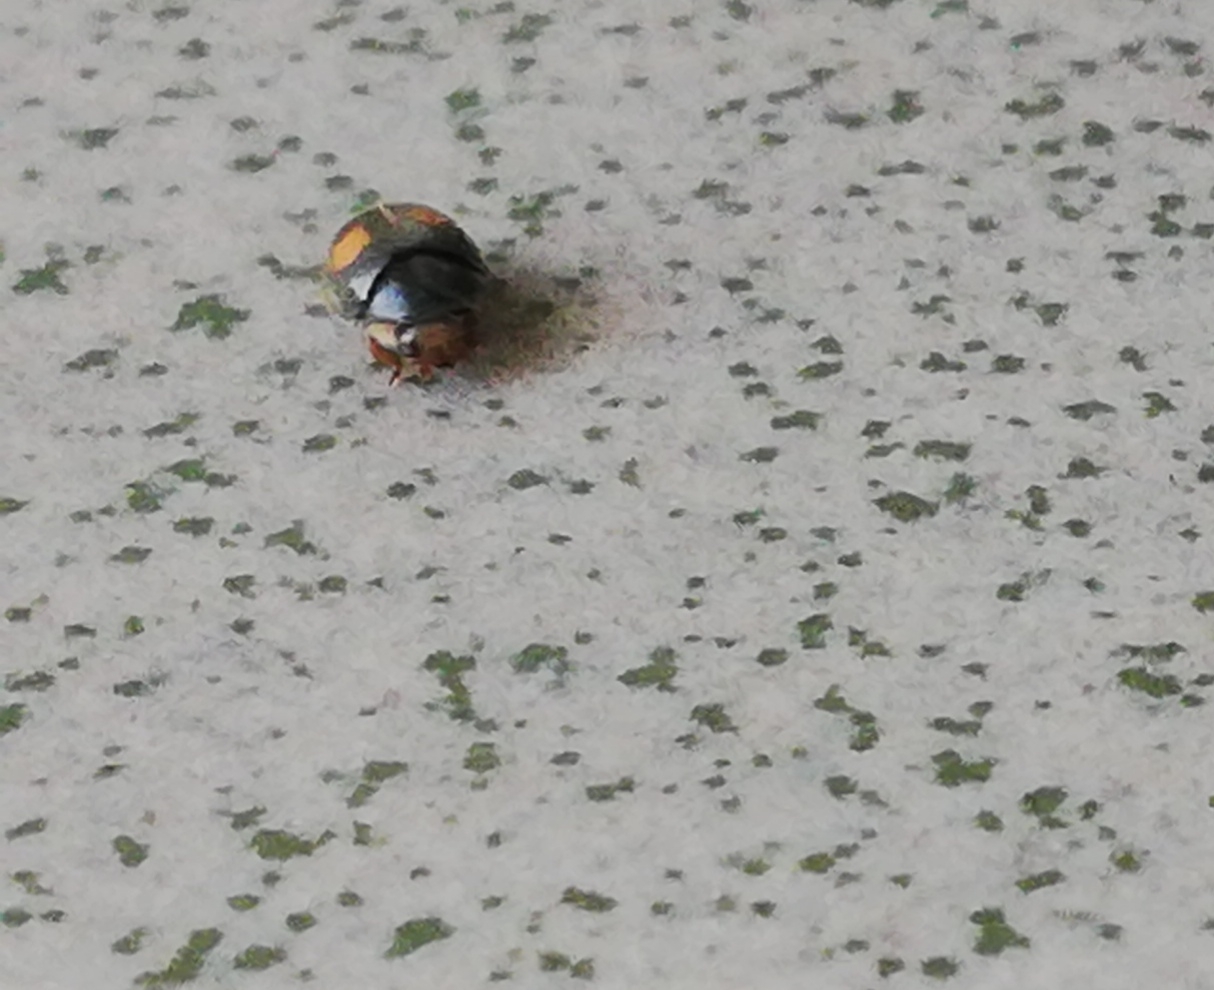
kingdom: Animalia
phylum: Arthropoda
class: Insecta
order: Coleoptera
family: Coccinellidae
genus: Platynaspis
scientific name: Platynaspis luteorubra
